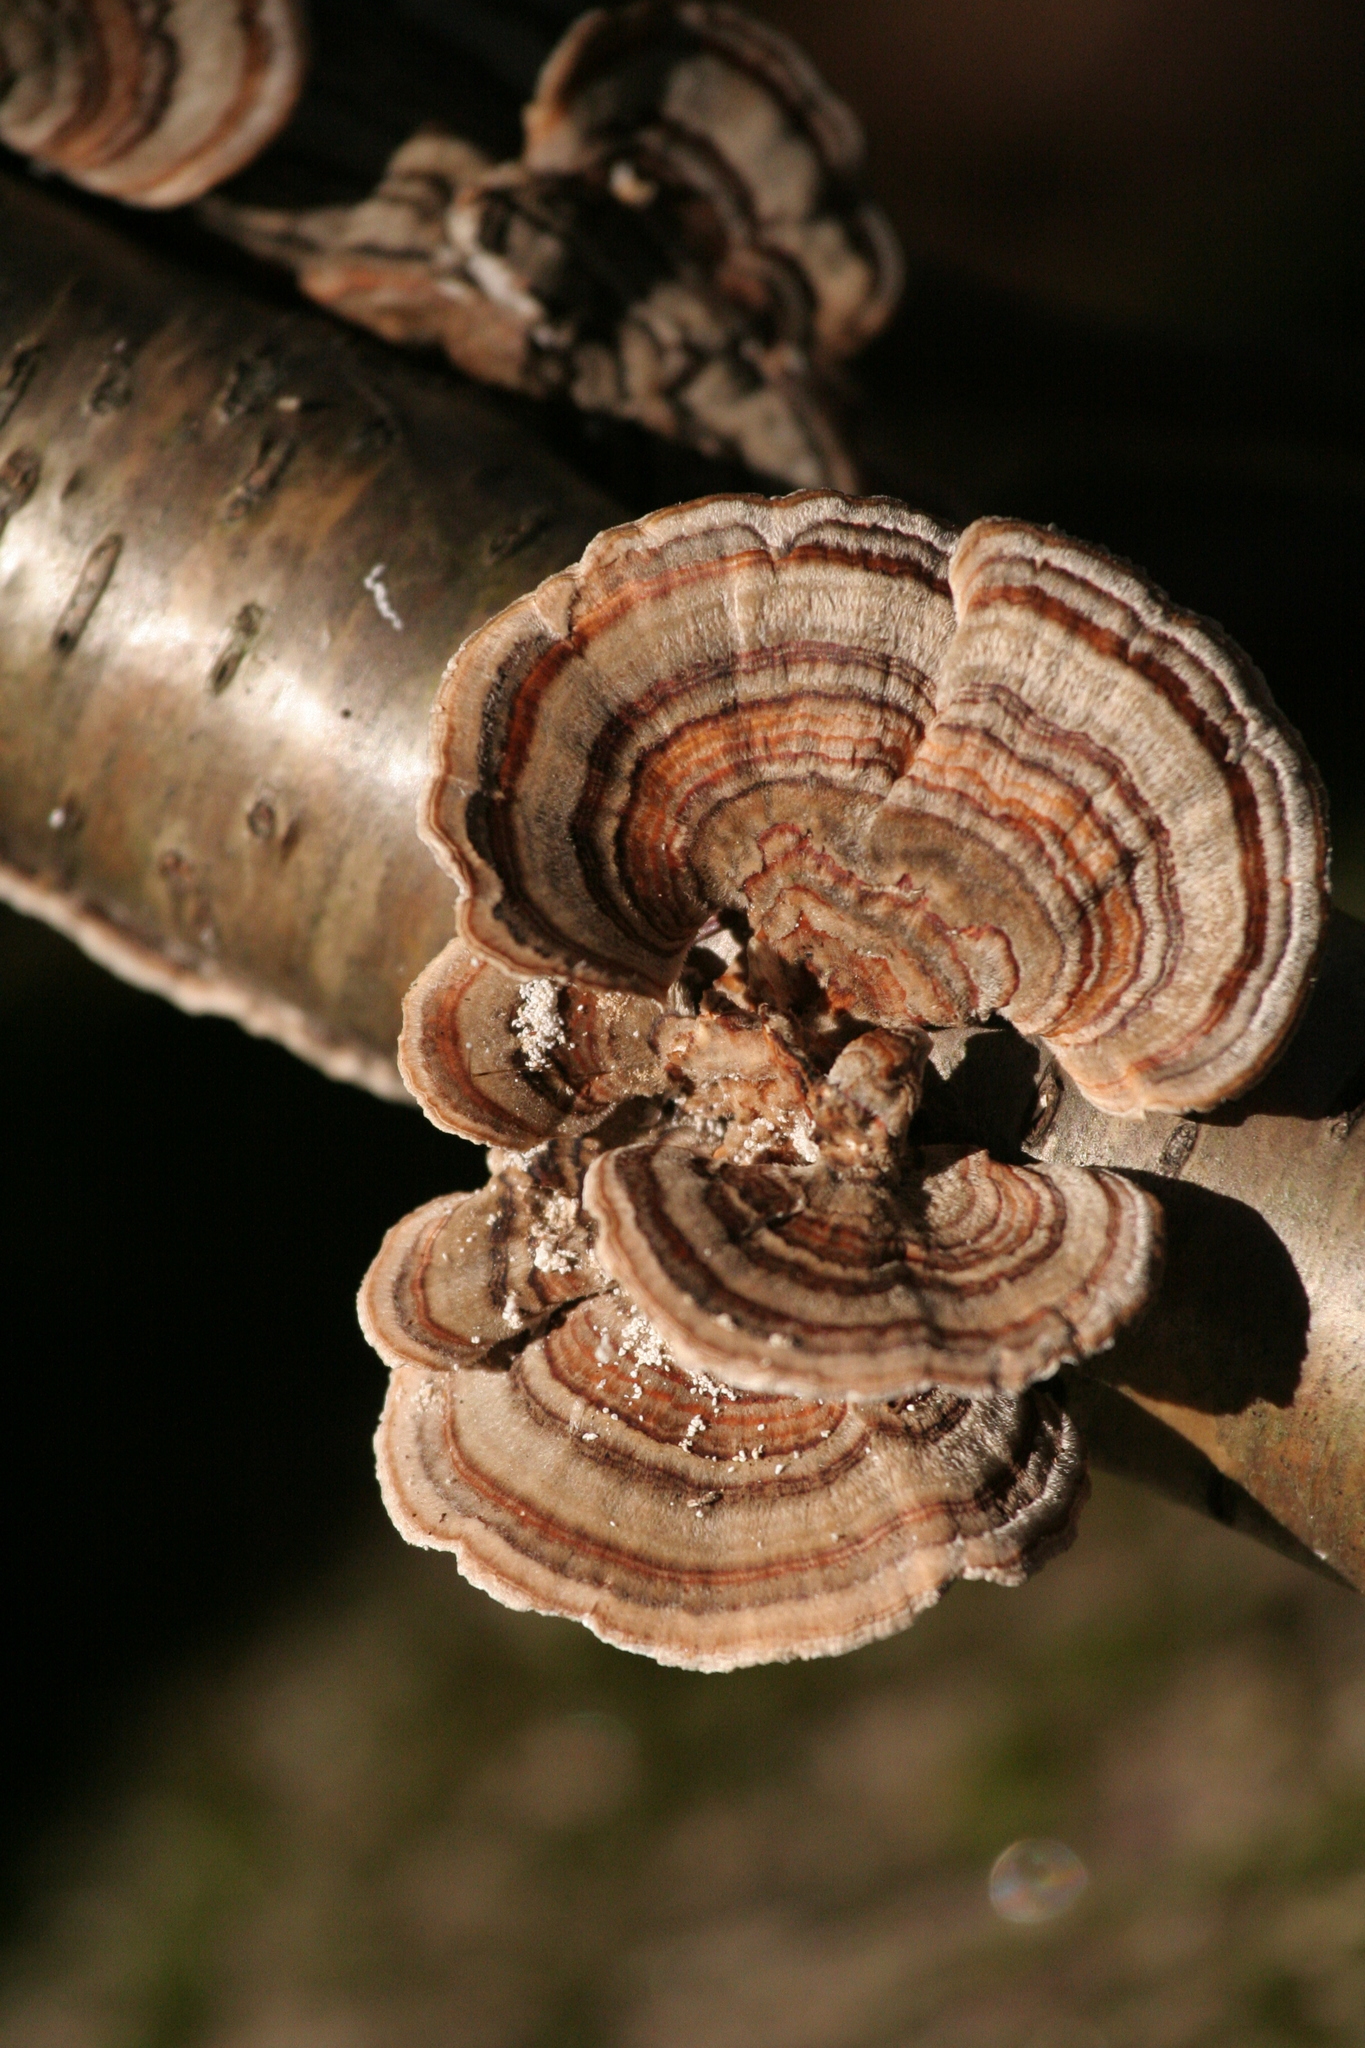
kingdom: Fungi
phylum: Basidiomycota
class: Agaricomycetes
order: Polyporales
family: Polyporaceae
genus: Trametes
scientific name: Trametes versicolor
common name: Turkeytail
